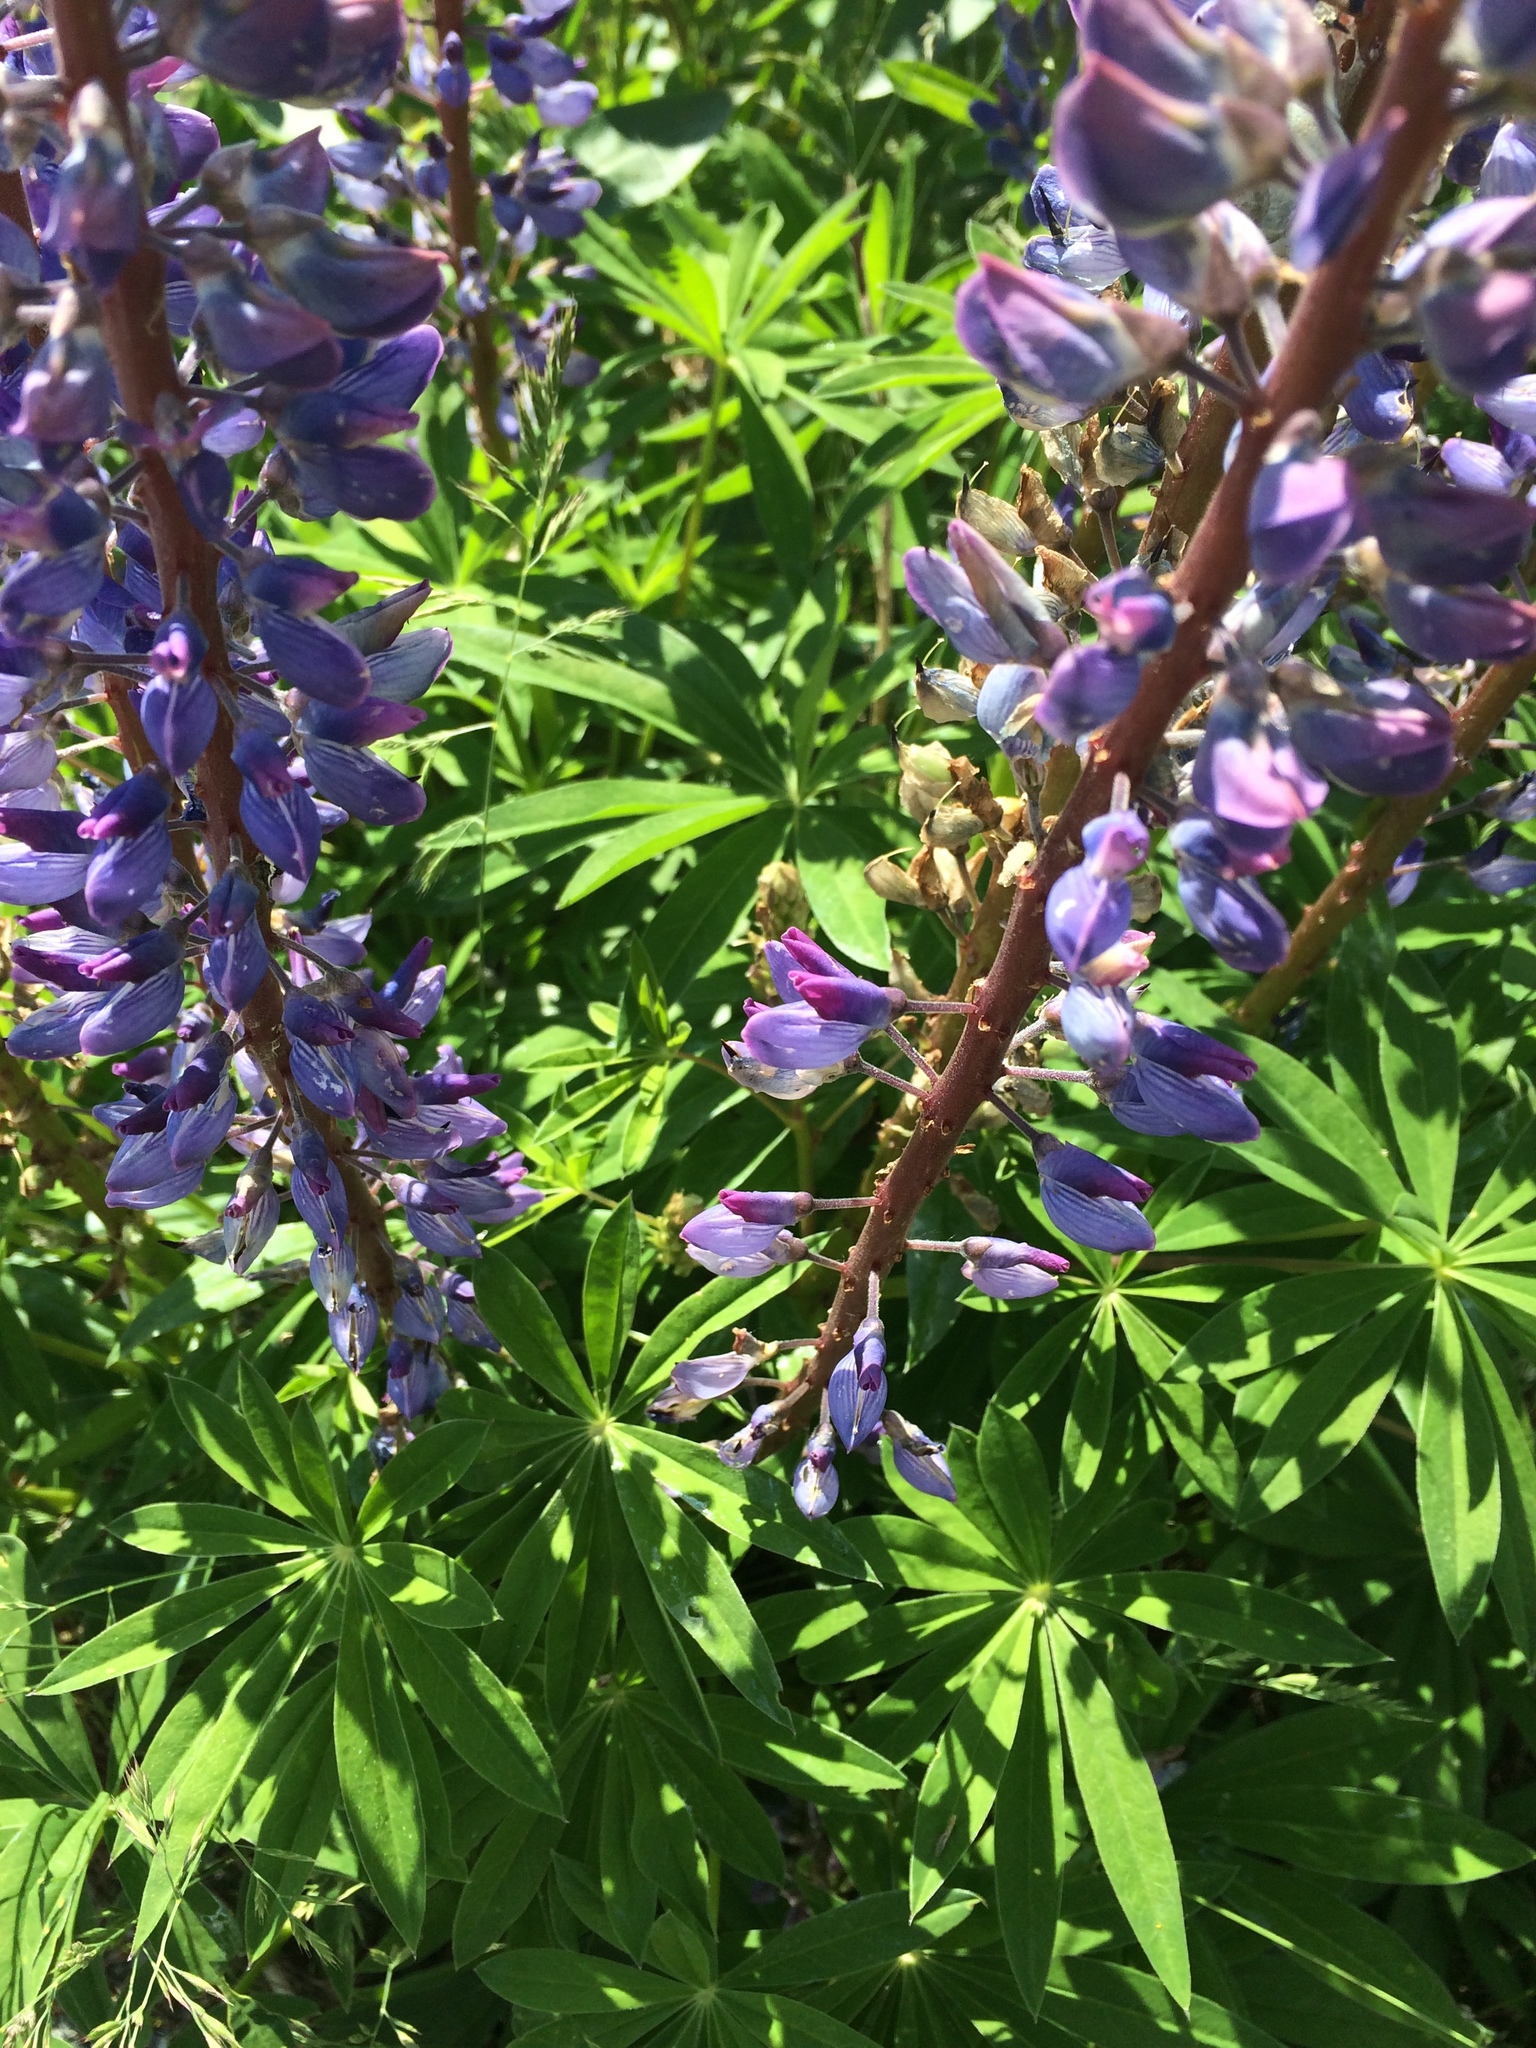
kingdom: Plantae
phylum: Tracheophyta
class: Magnoliopsida
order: Fabales
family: Fabaceae
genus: Lupinus
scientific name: Lupinus polyphyllus
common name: Garden lupin
